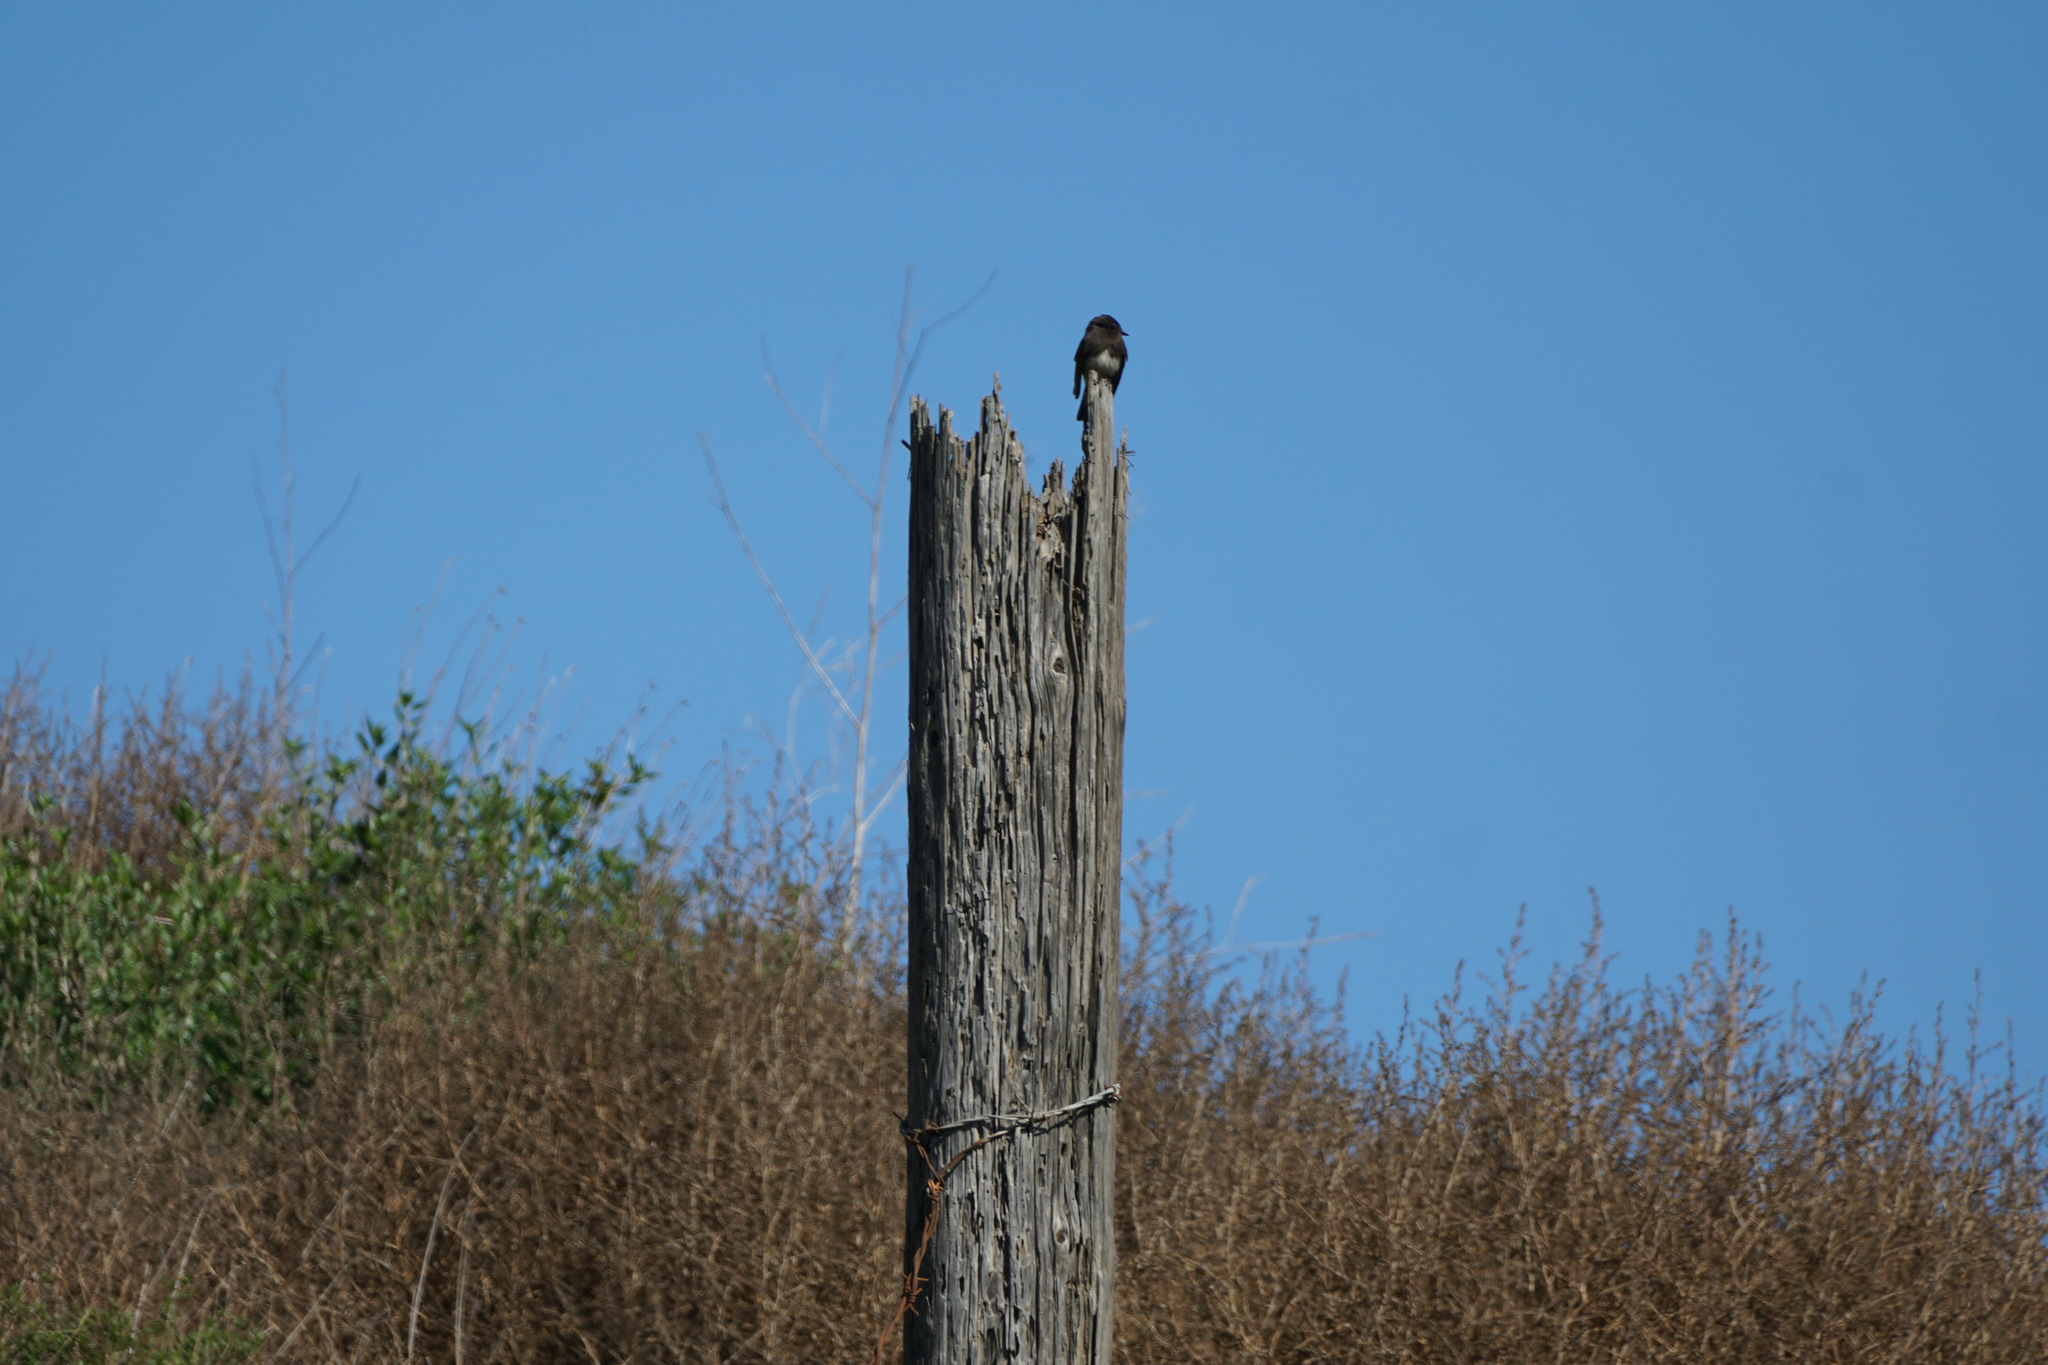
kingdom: Animalia
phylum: Chordata
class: Aves
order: Passeriformes
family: Tyrannidae
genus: Sayornis
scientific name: Sayornis nigricans
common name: Black phoebe
